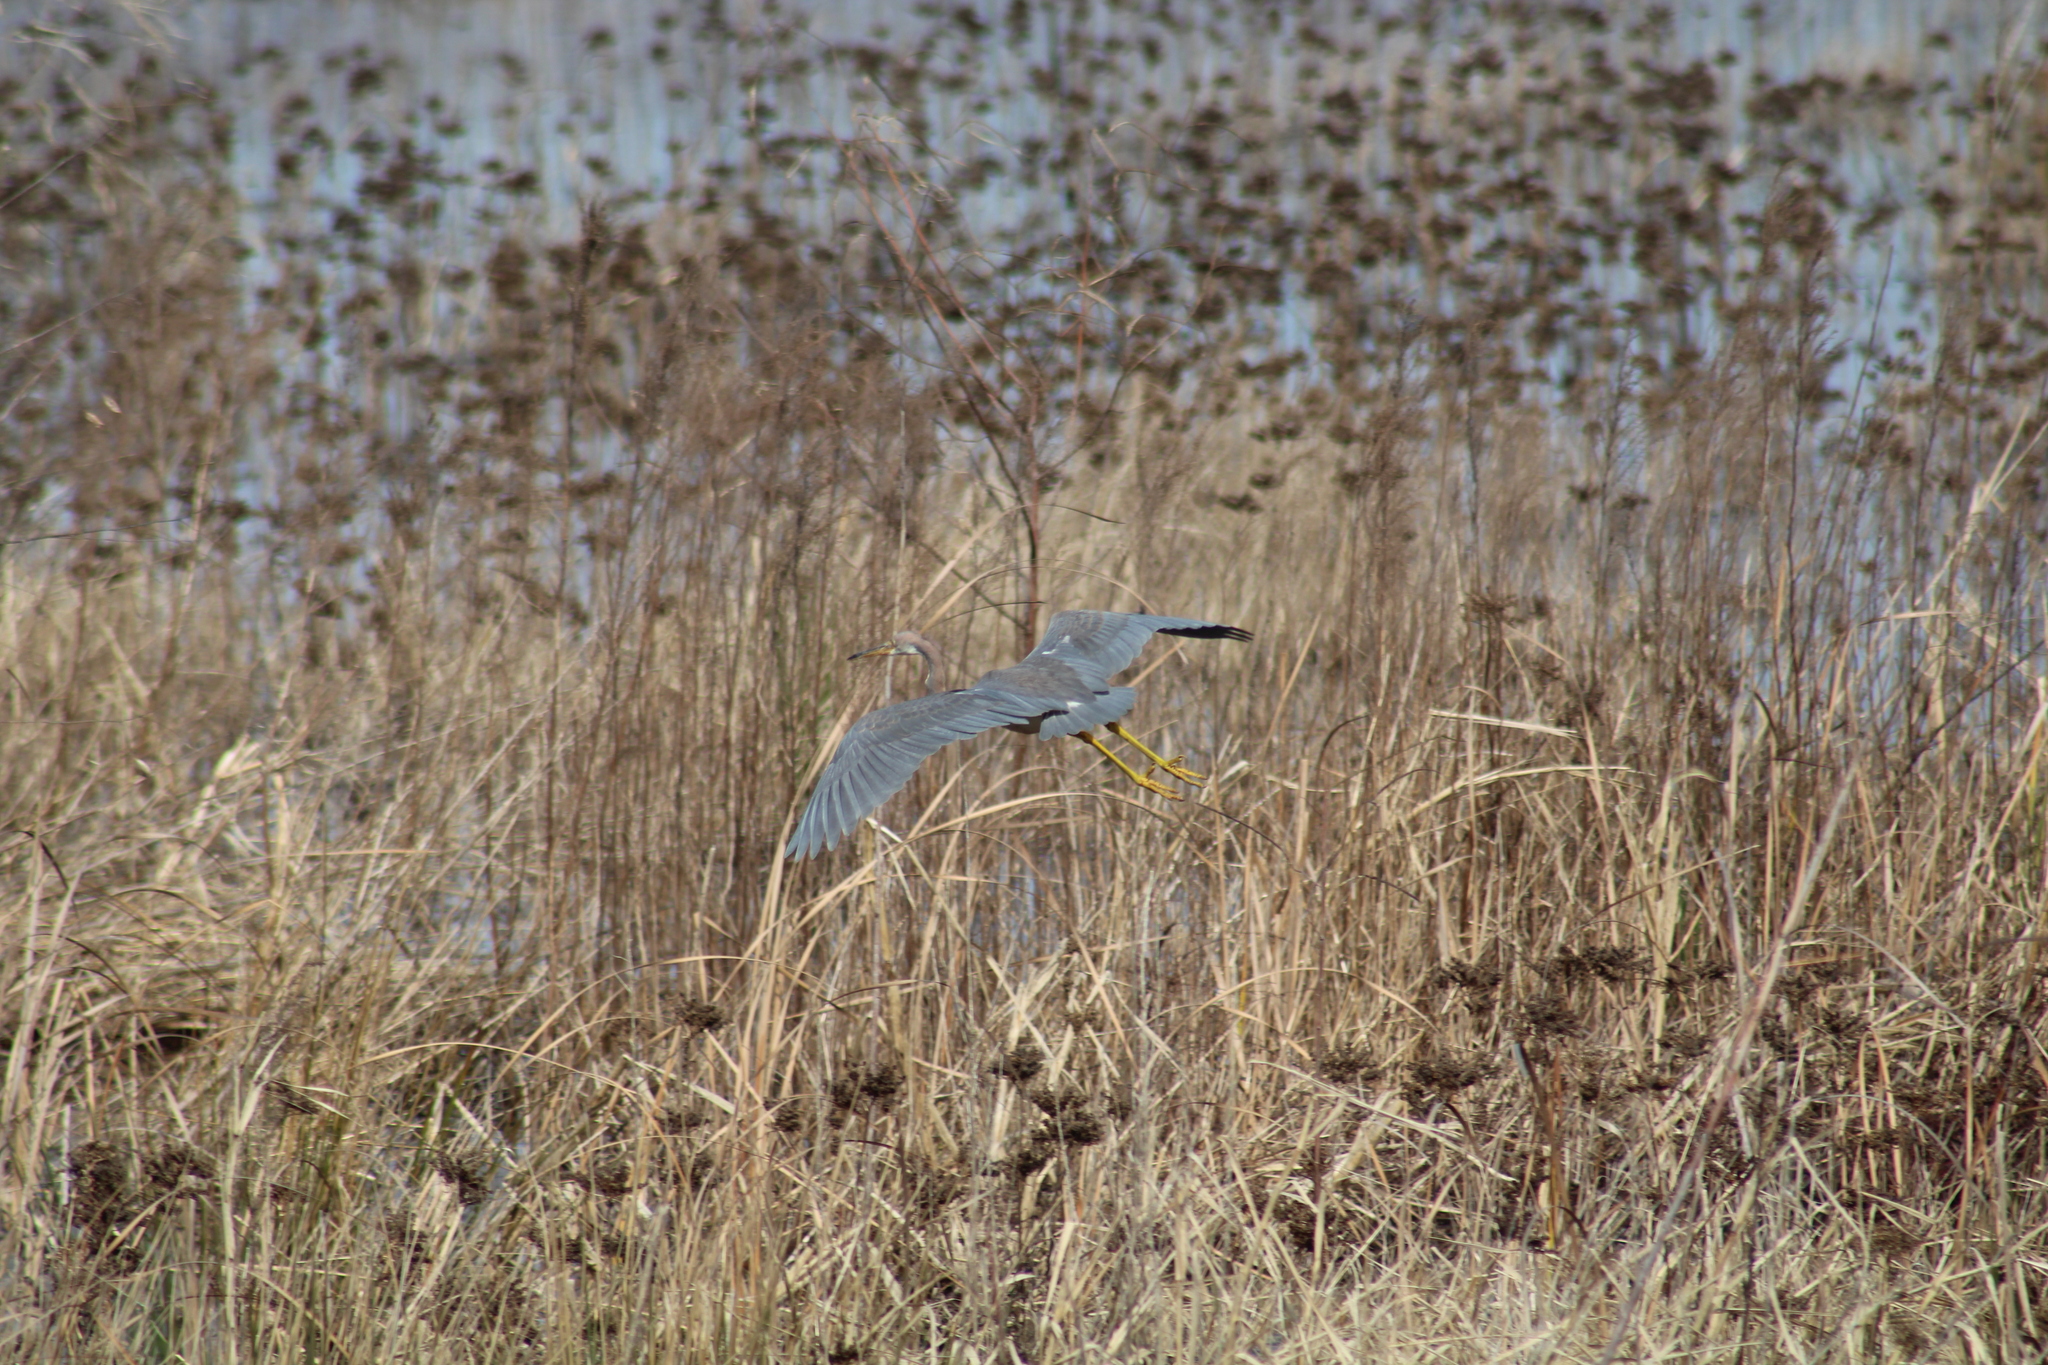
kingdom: Animalia
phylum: Chordata
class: Aves
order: Pelecaniformes
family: Ardeidae
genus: Egretta
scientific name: Egretta tricolor
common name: Tricolored heron
